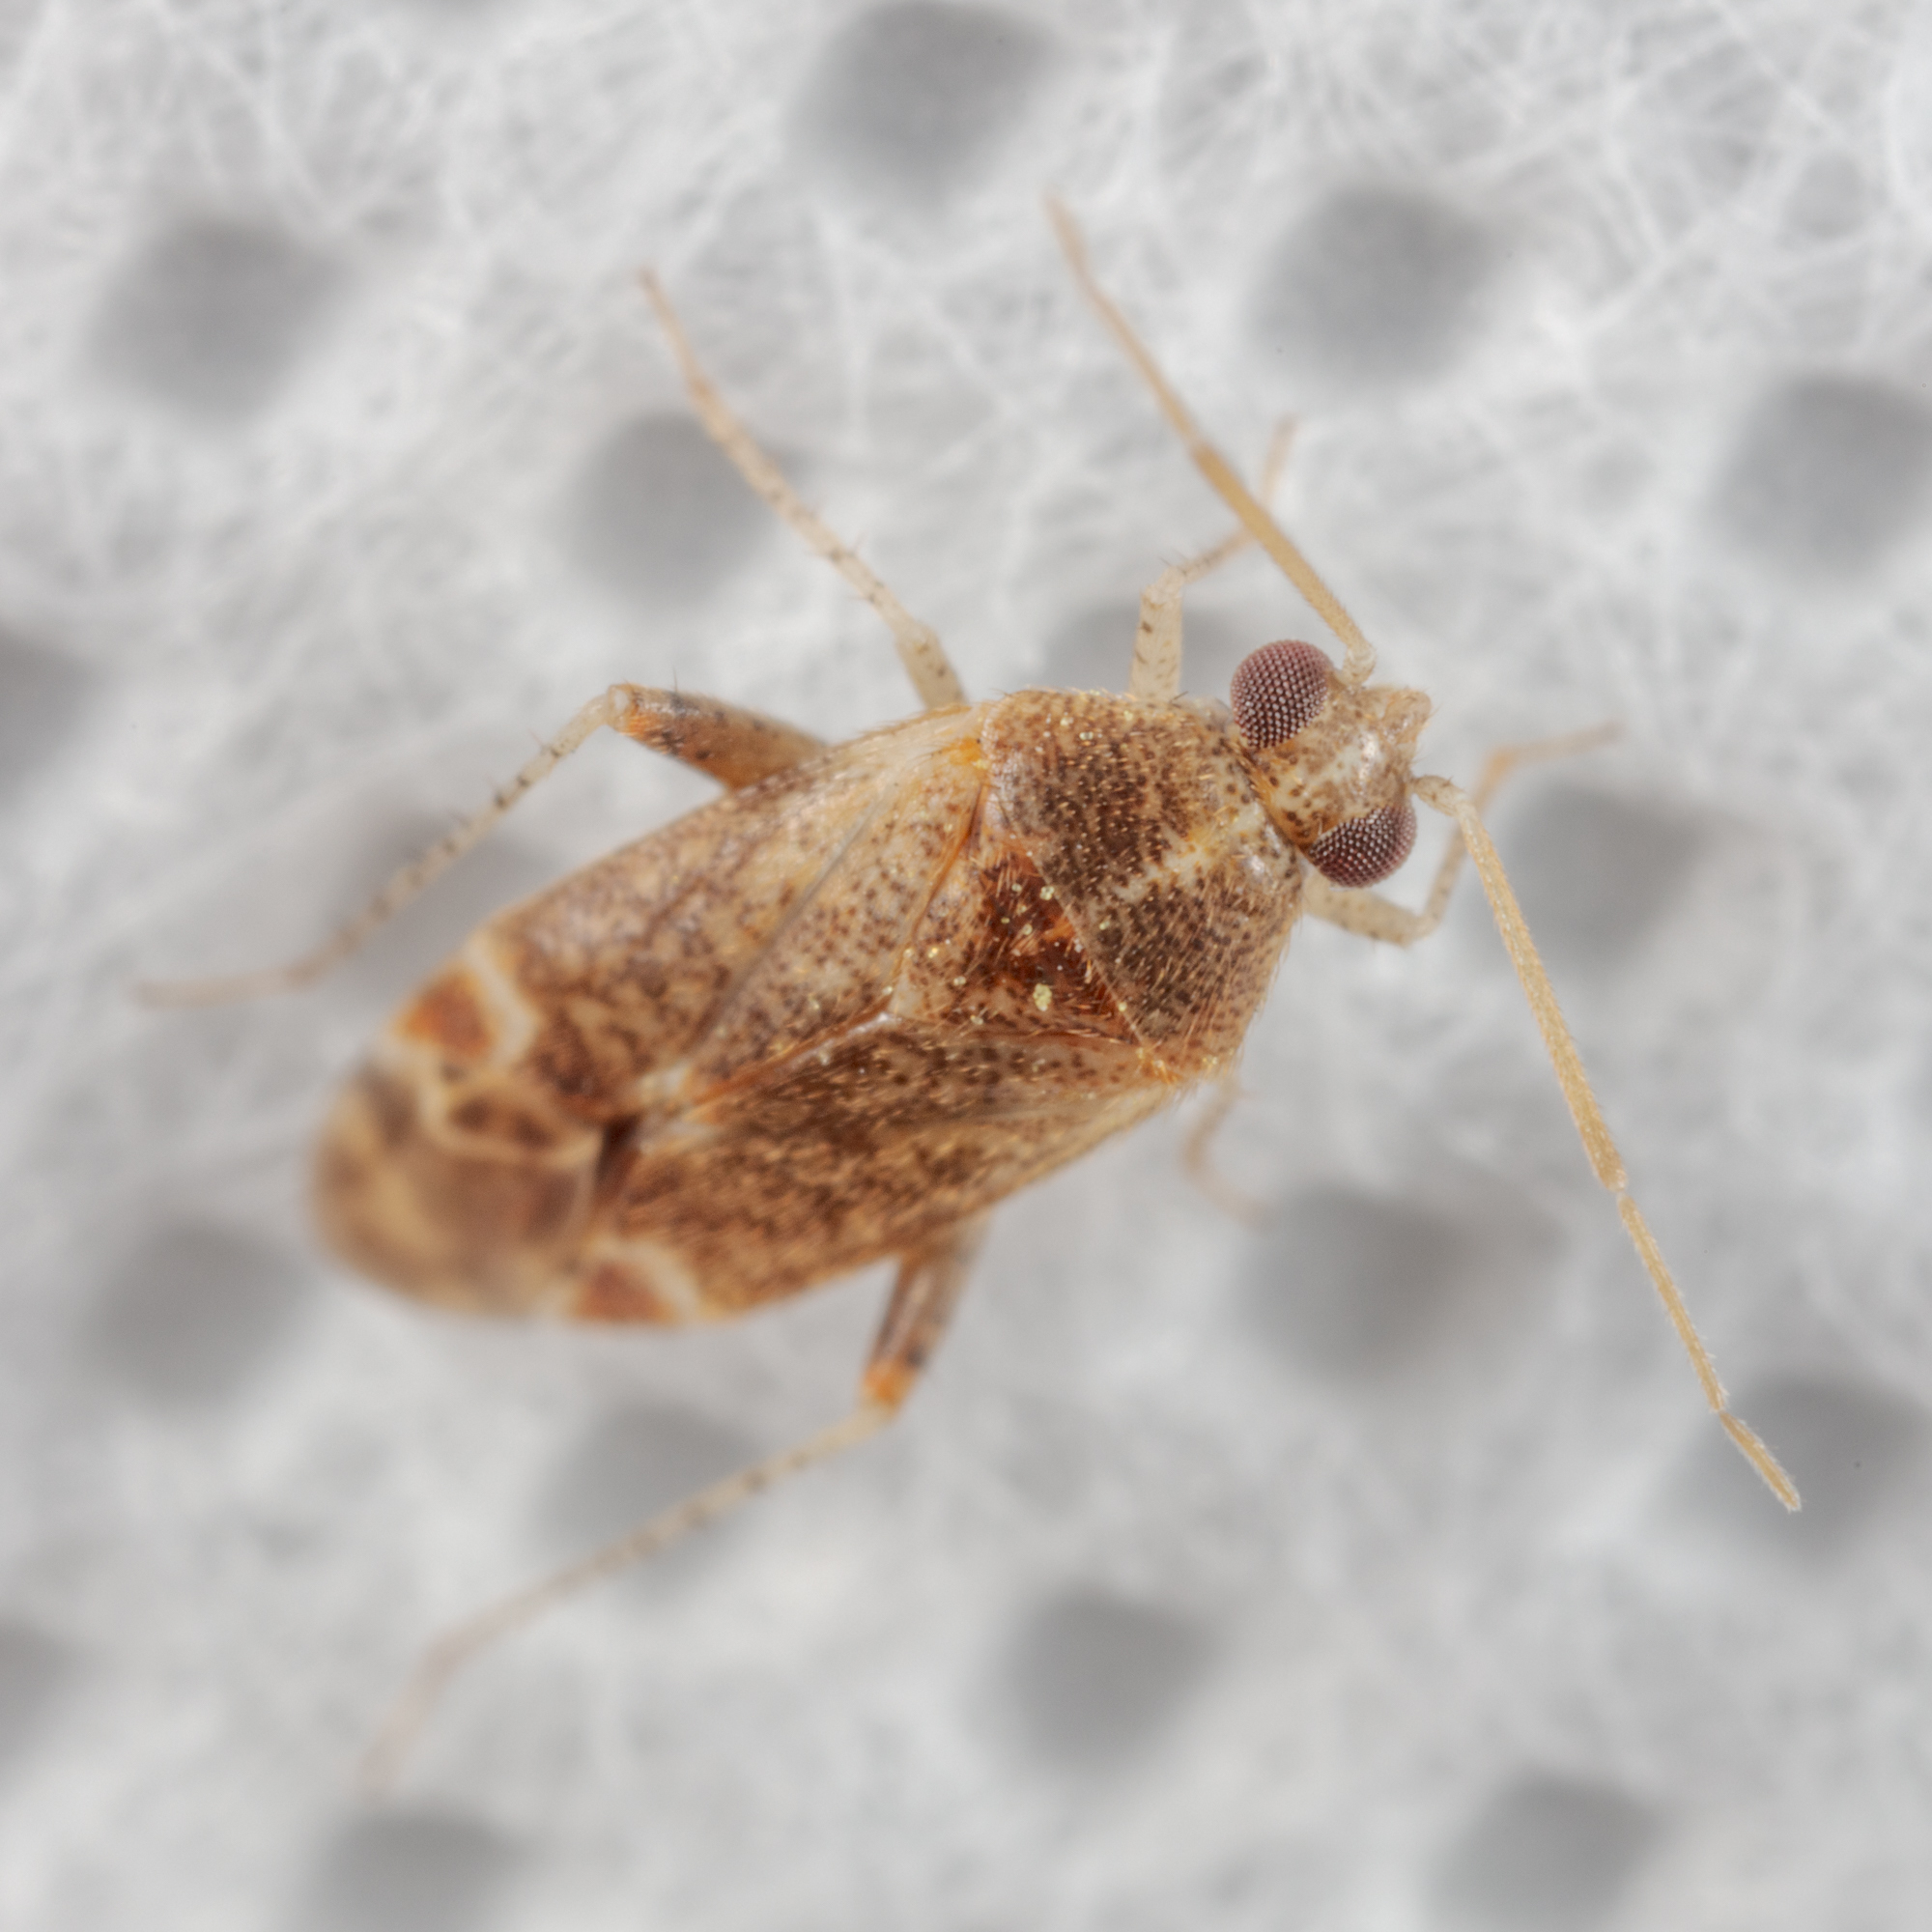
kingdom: Animalia
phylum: Arthropoda
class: Insecta
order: Hemiptera
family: Miridae
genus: Hamatophylus
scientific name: Hamatophylus guttulosus
